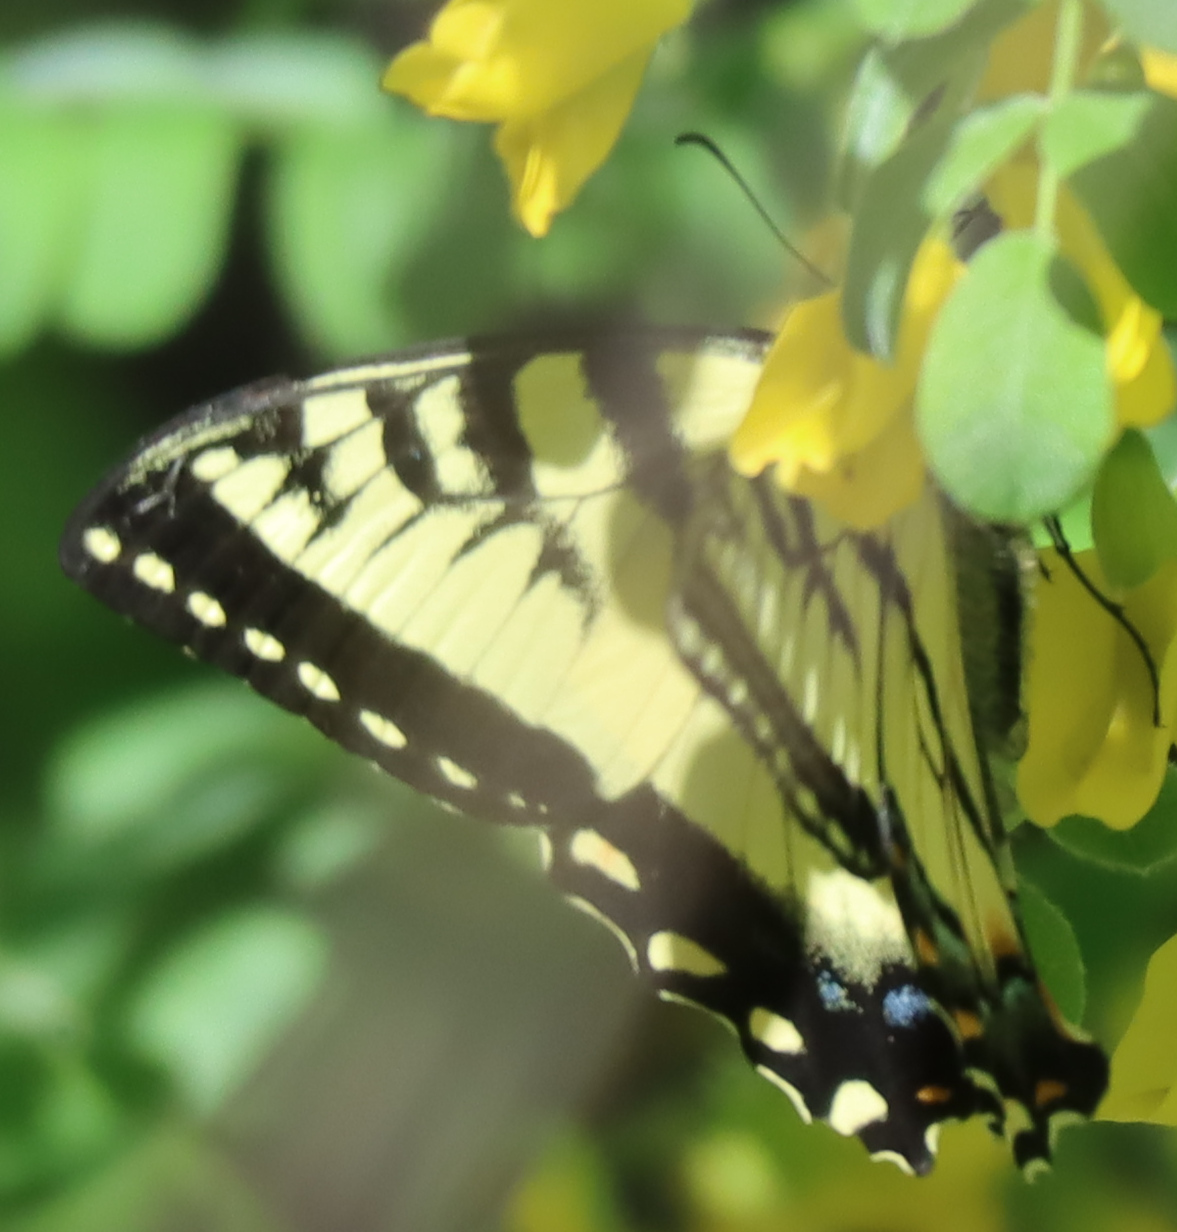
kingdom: Animalia
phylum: Arthropoda
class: Insecta
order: Lepidoptera
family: Papilionidae
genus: Papilio
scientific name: Papilio canadensis
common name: Canadian tiger swallowtail
